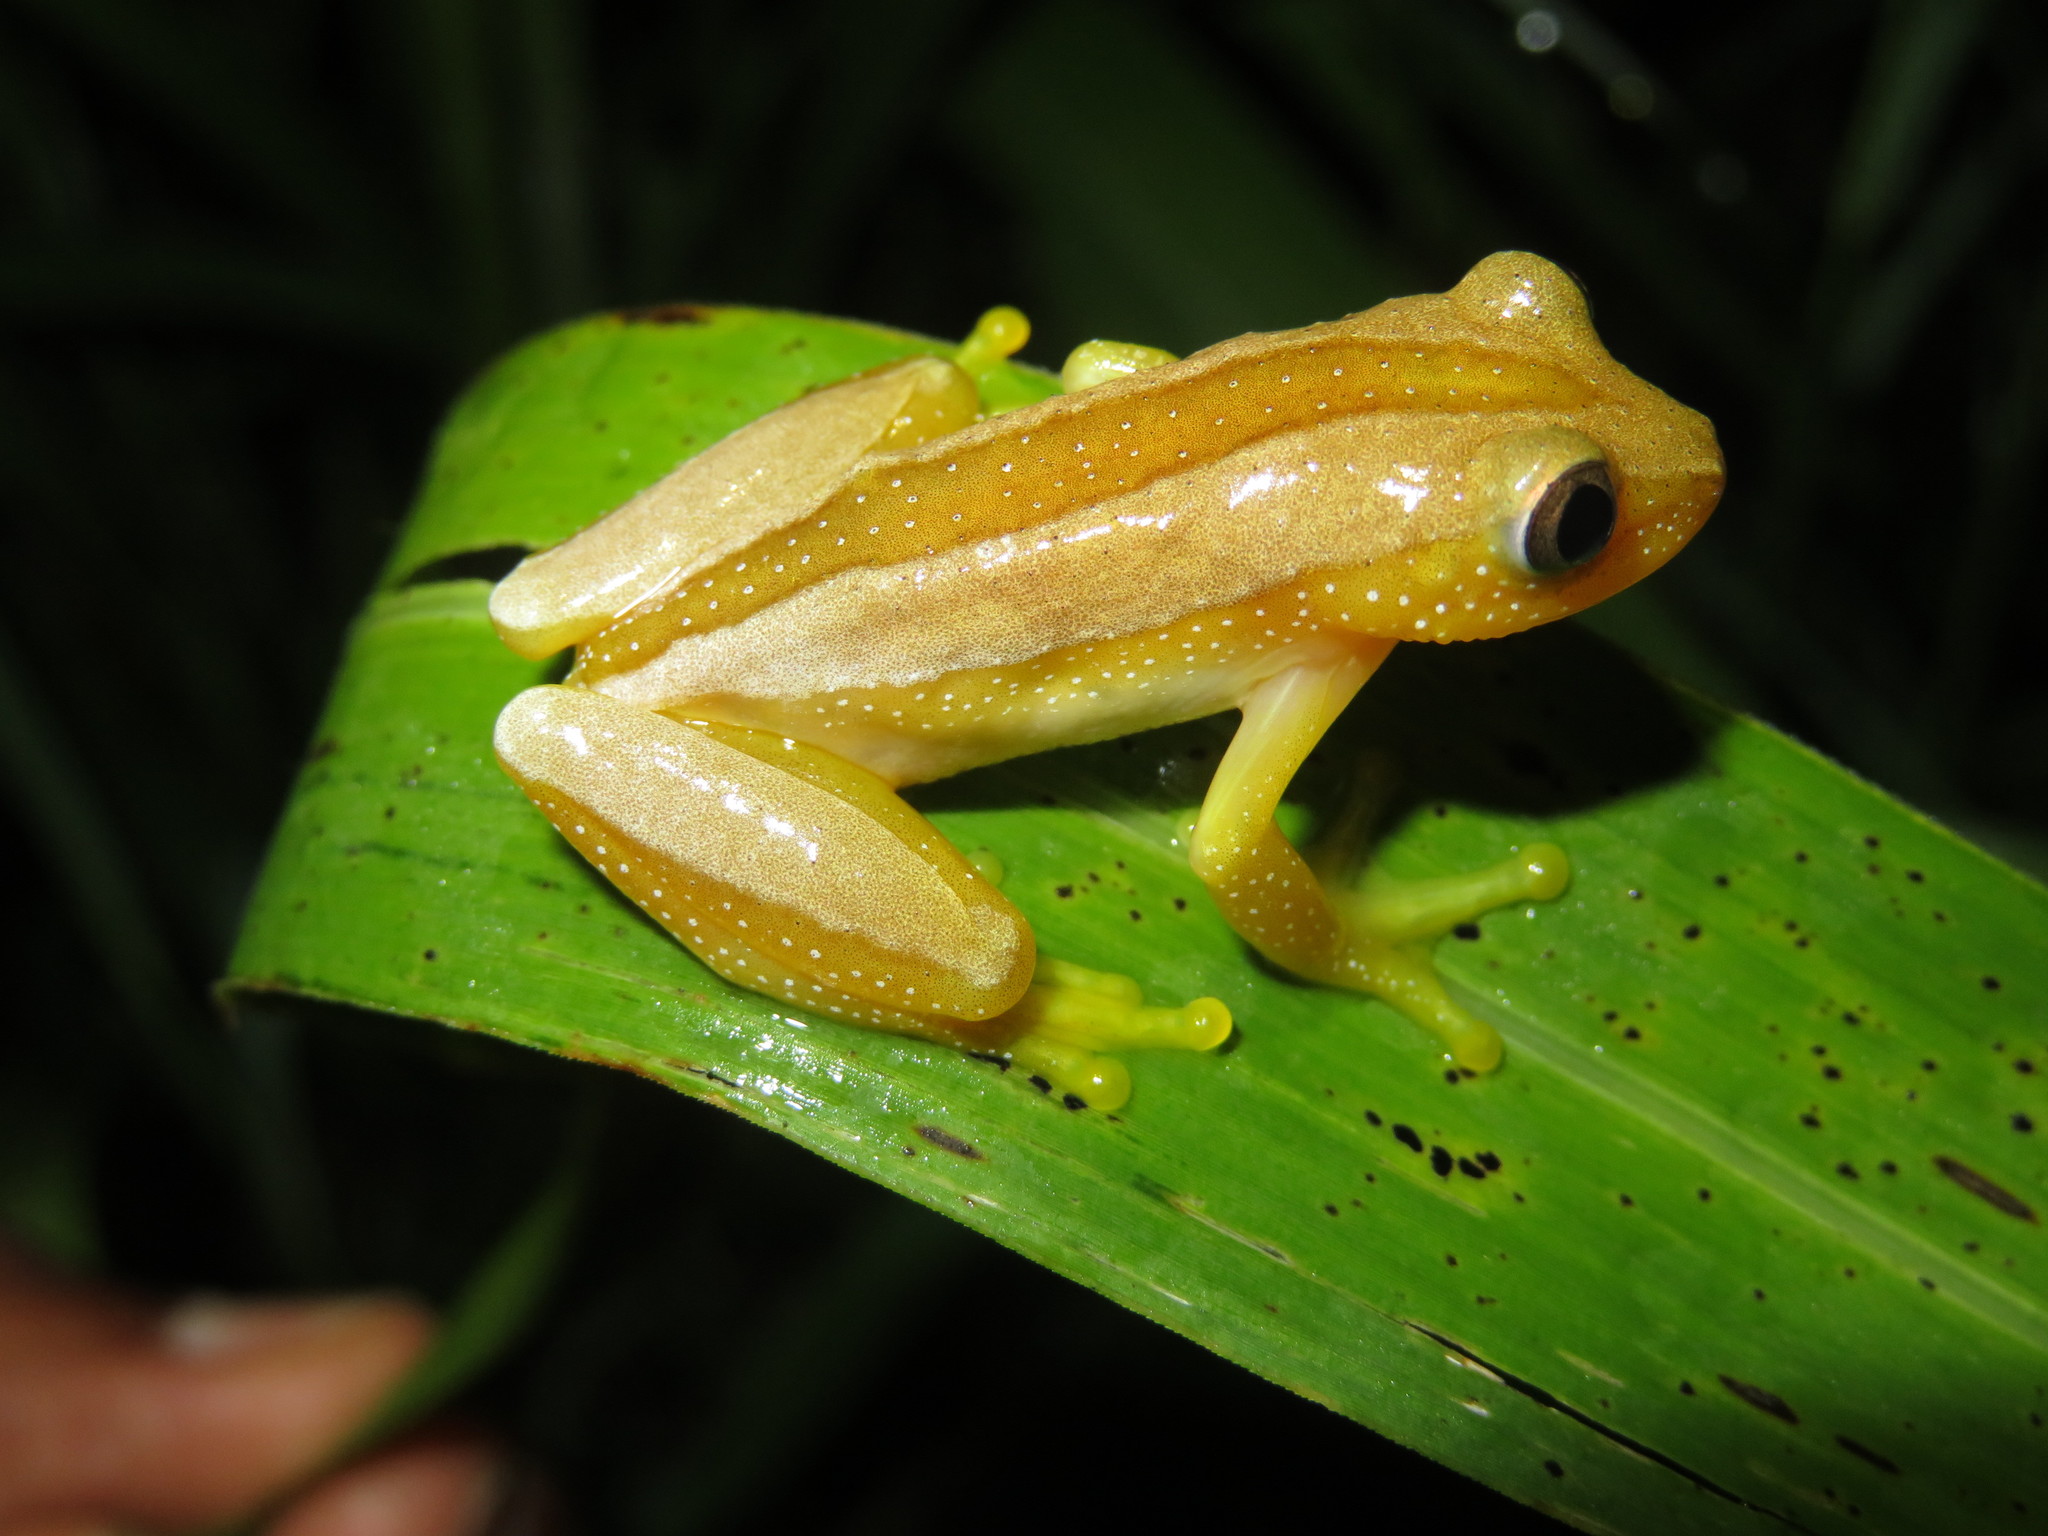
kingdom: Animalia
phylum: Chordata
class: Amphibia
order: Anura
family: Hyperoliidae
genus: Afrixalus
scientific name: Afrixalus fornasini
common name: Fornasini's spiny reed frog
